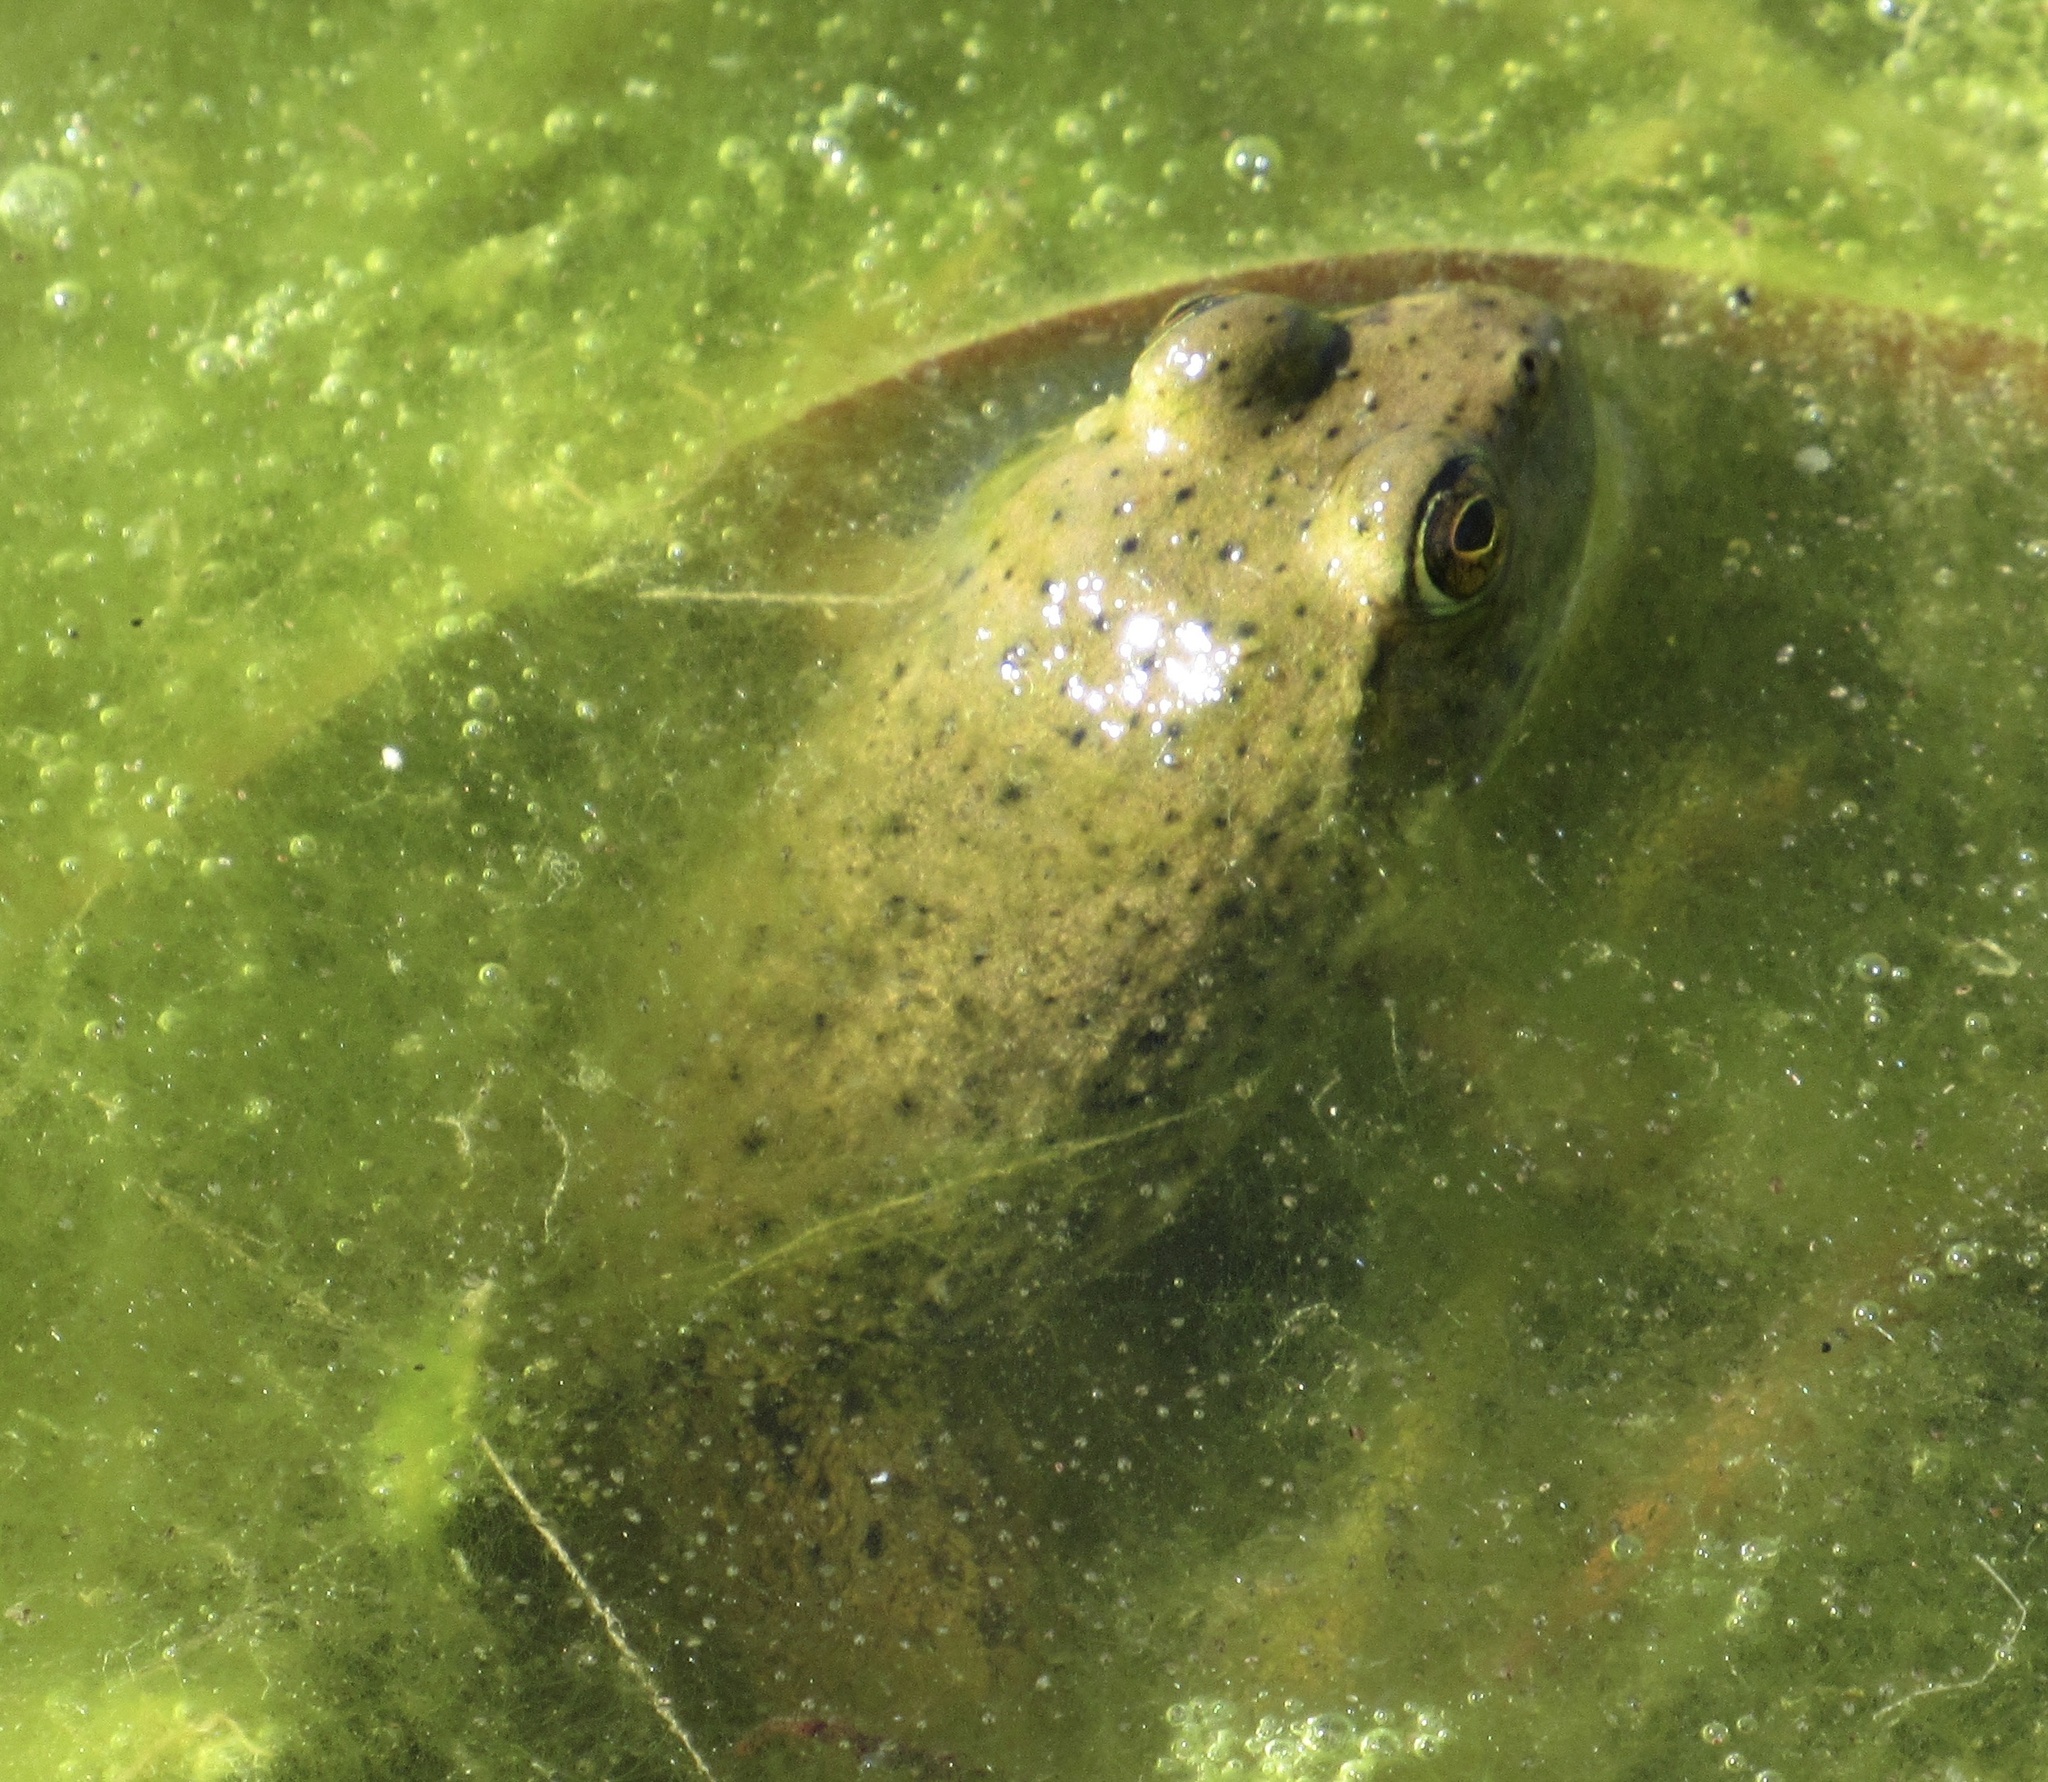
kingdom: Animalia
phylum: Chordata
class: Amphibia
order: Anura
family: Ranidae
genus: Lithobates
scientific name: Lithobates catesbeianus
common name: American bullfrog
